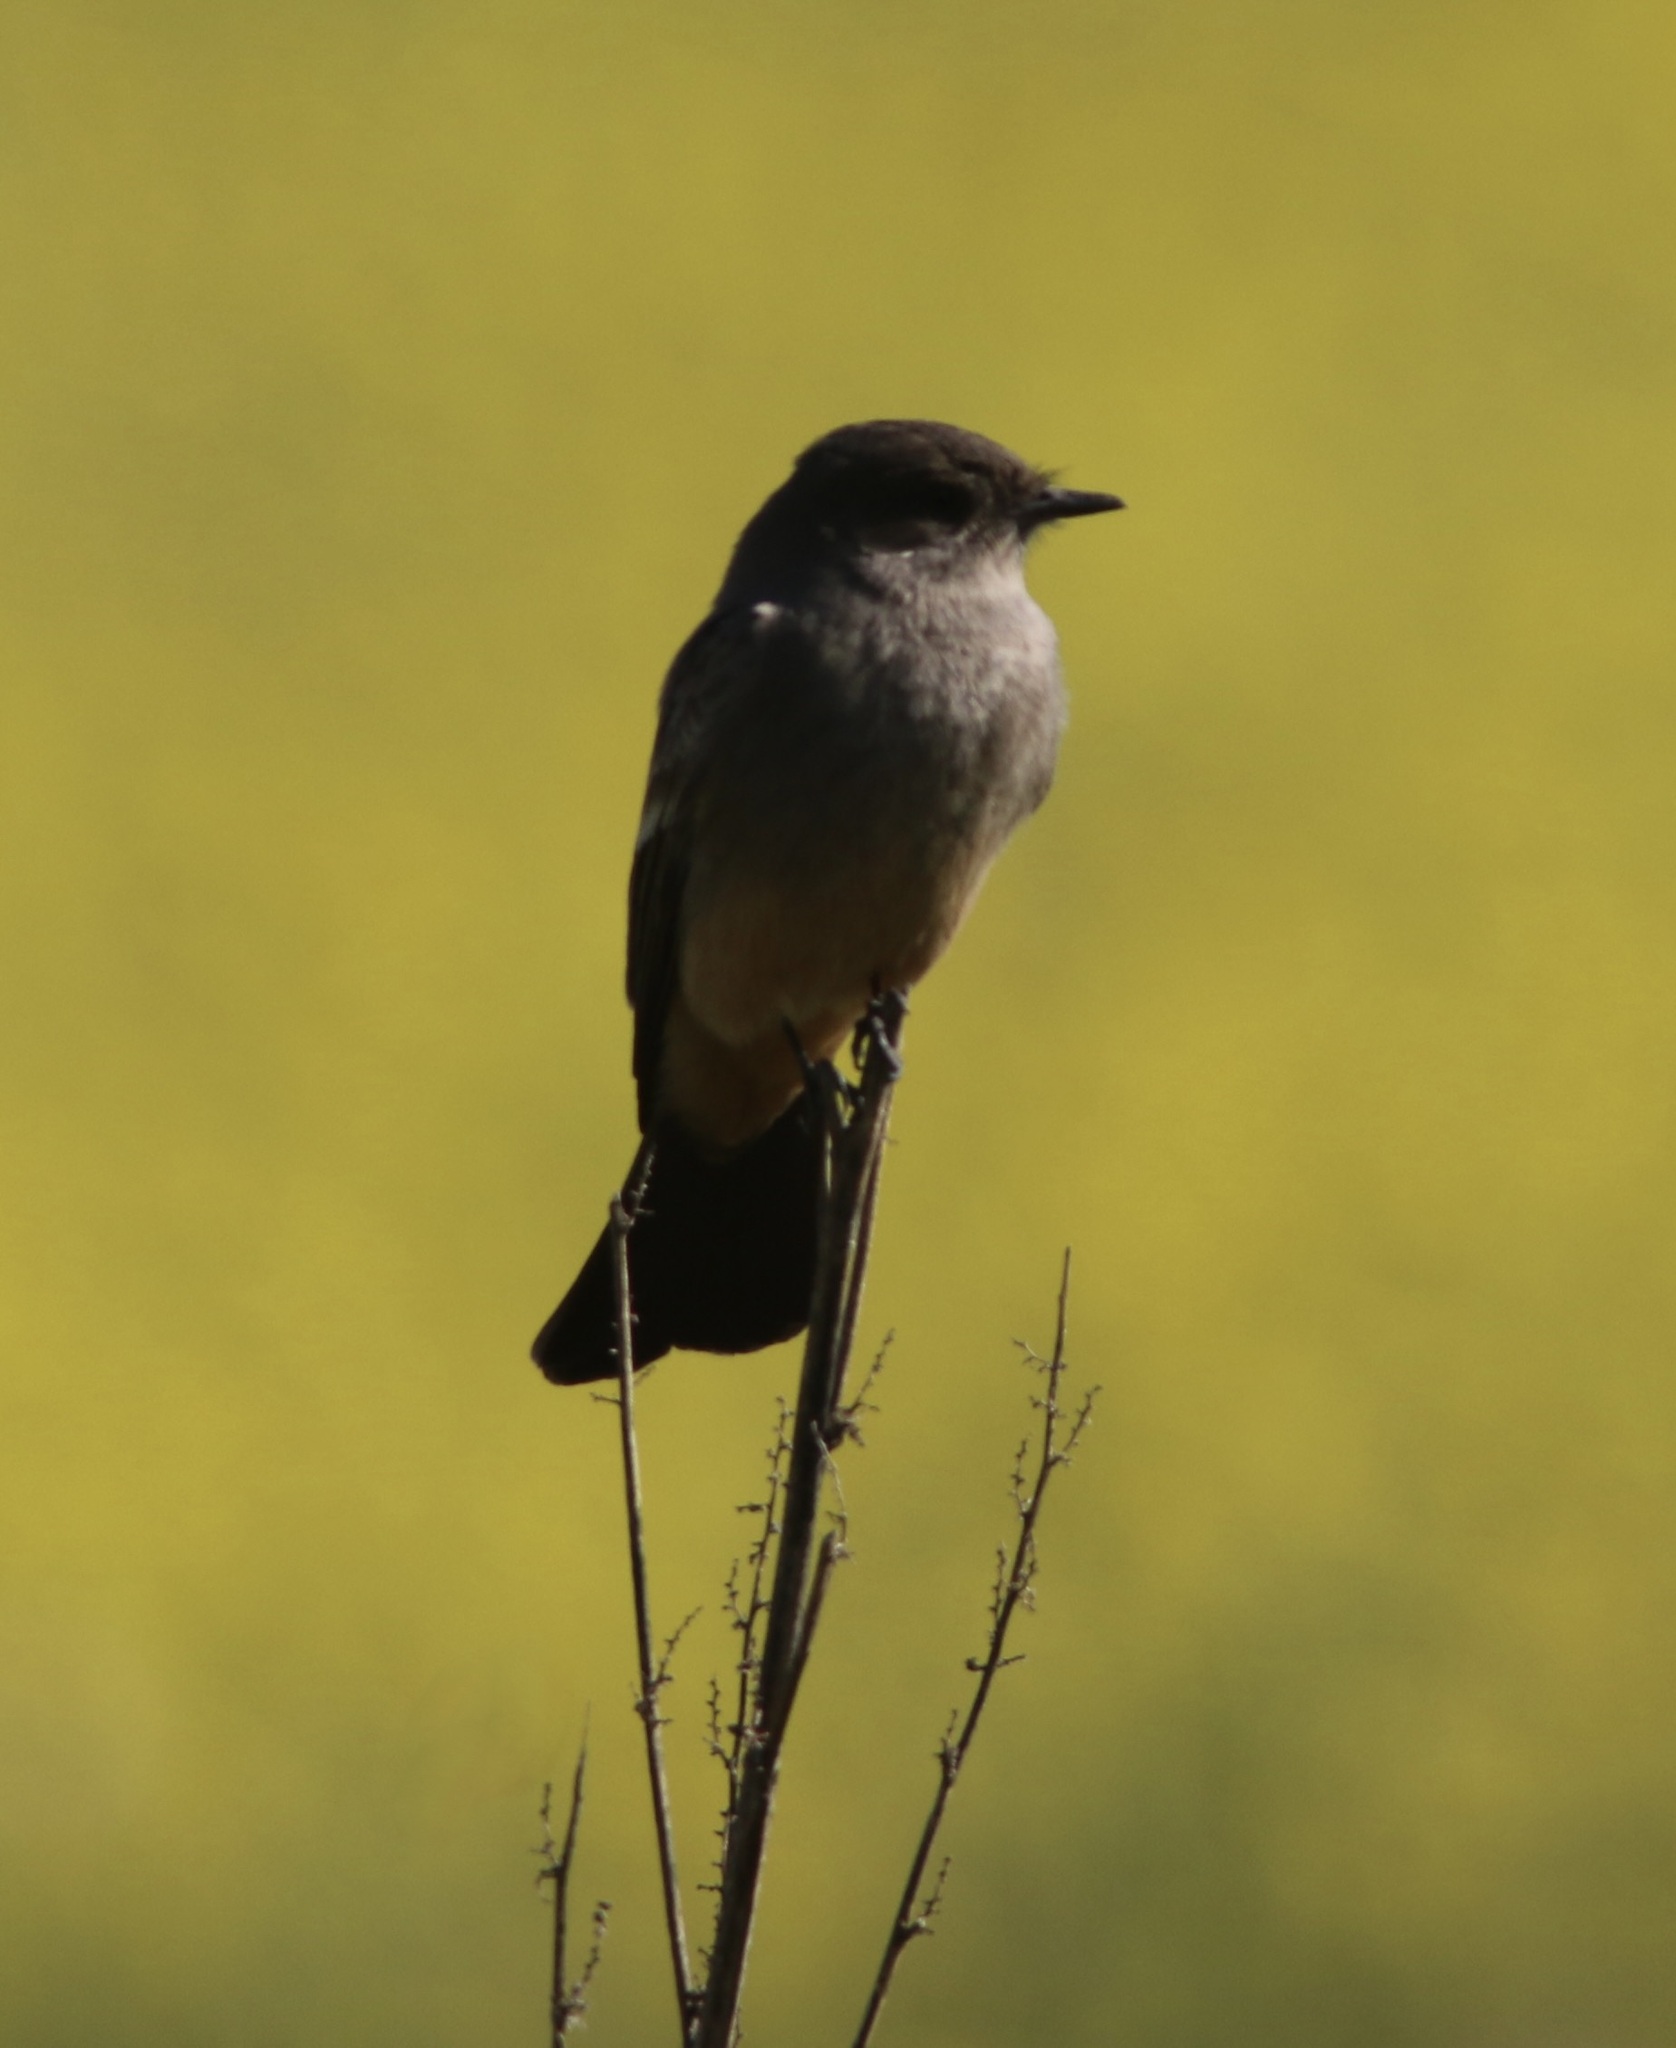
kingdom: Animalia
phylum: Chordata
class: Aves
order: Passeriformes
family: Tyrannidae
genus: Sayornis
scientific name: Sayornis saya
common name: Say's phoebe
